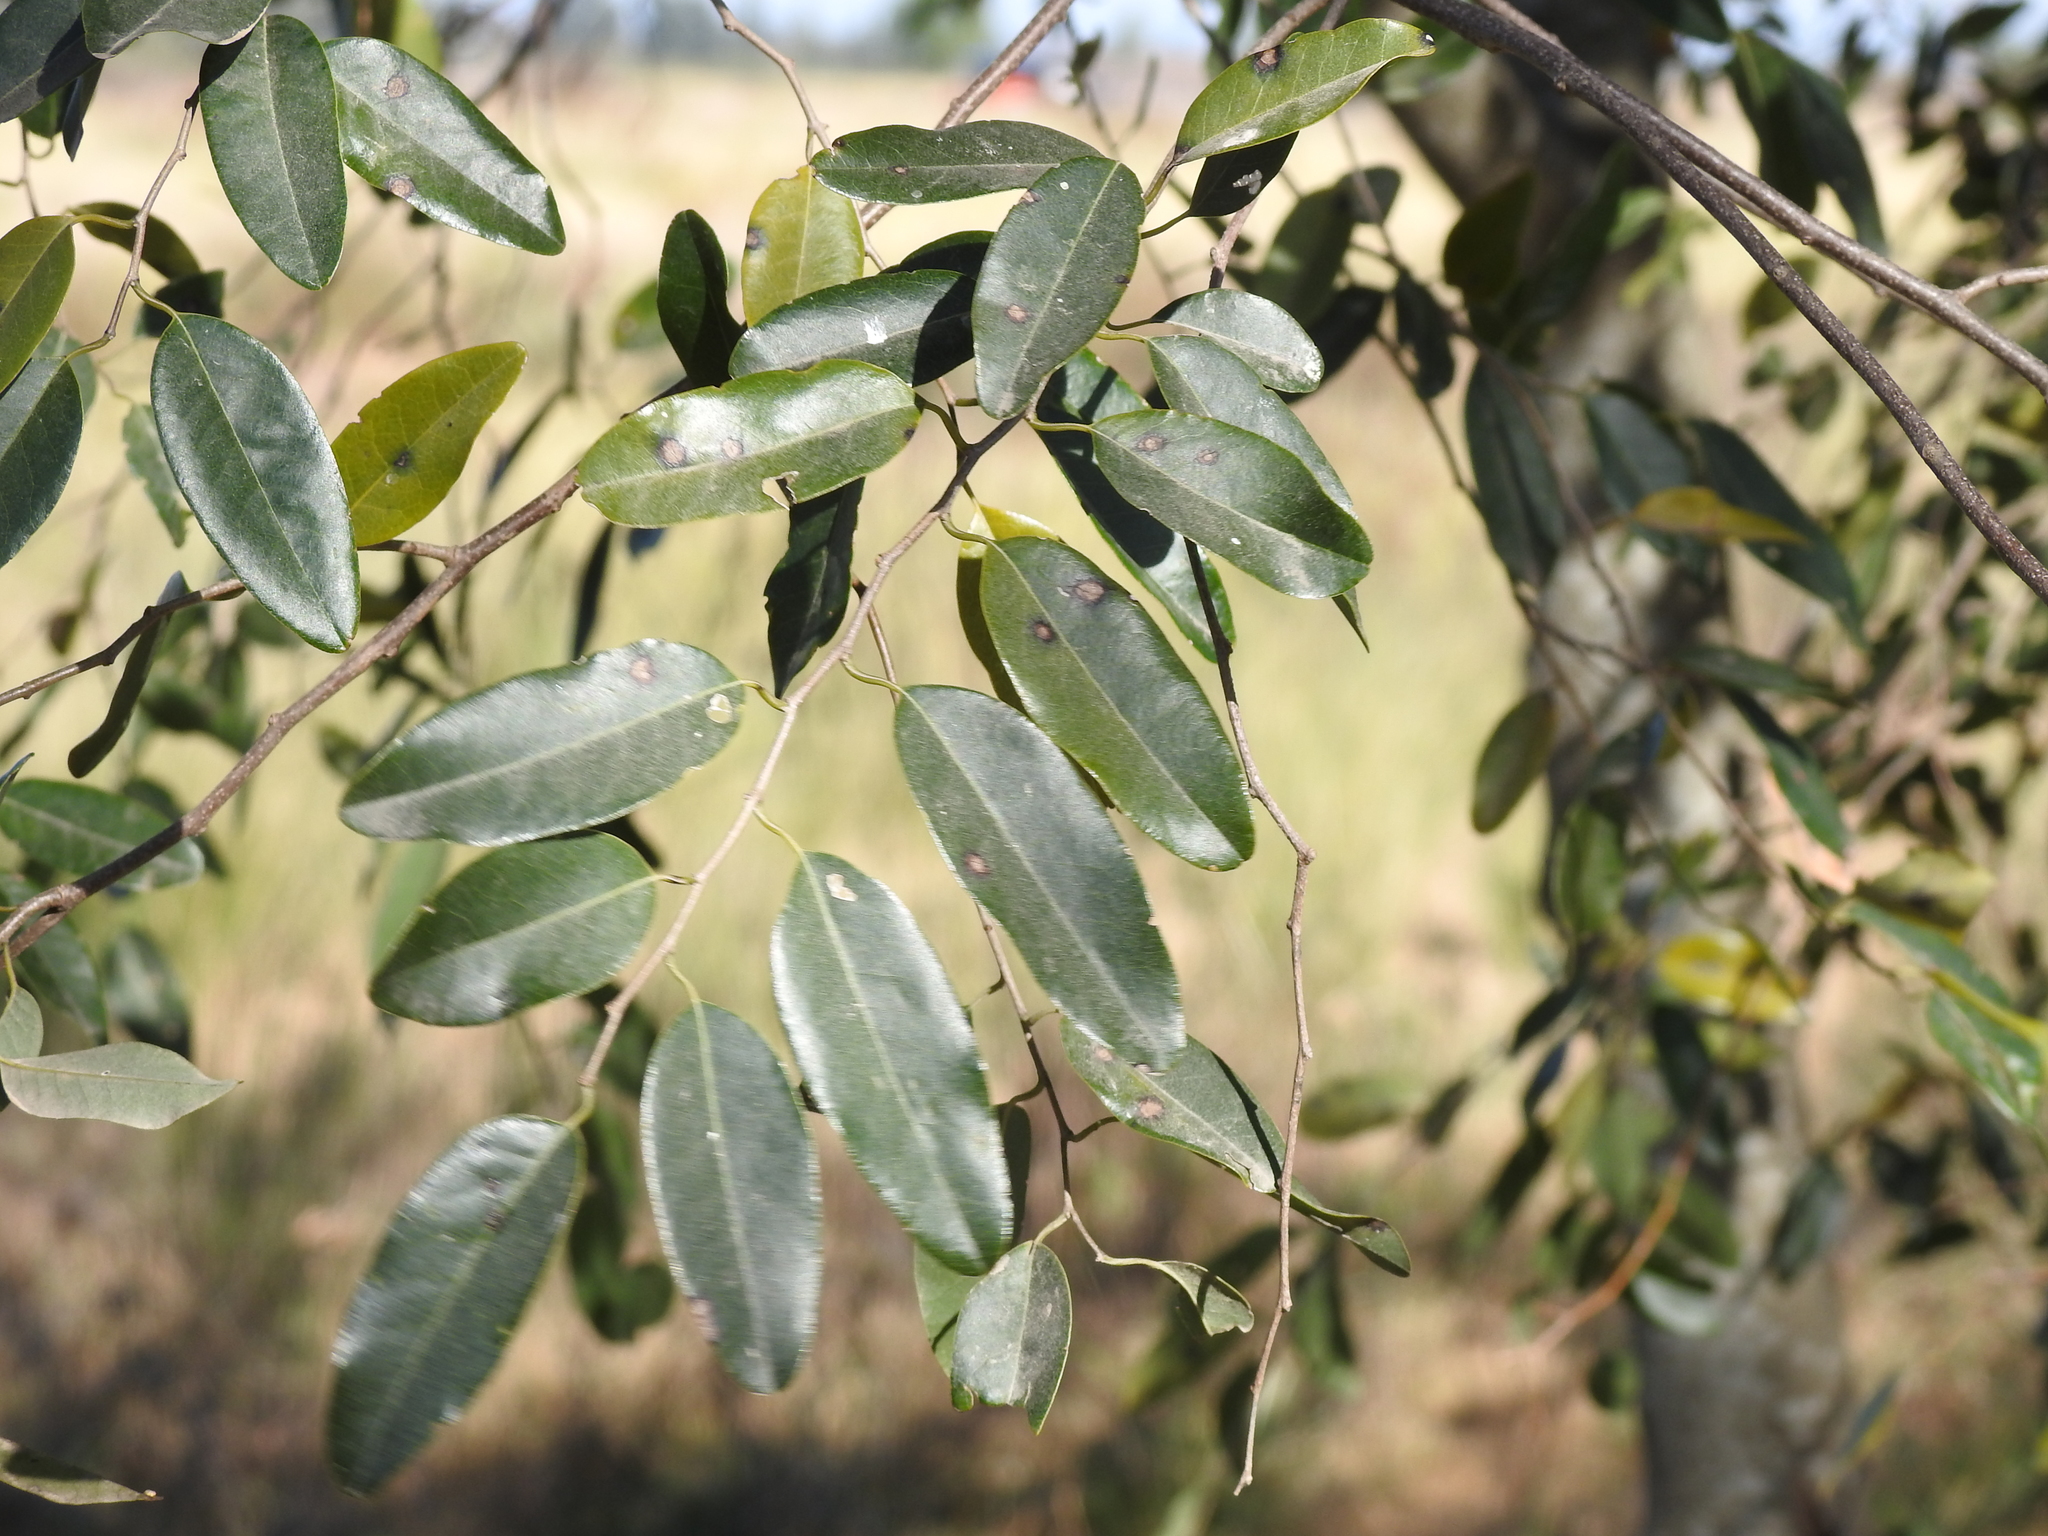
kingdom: Plantae
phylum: Tracheophyta
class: Magnoliopsida
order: Magnoliales
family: Annonaceae
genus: Annona
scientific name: Annona emarginata
